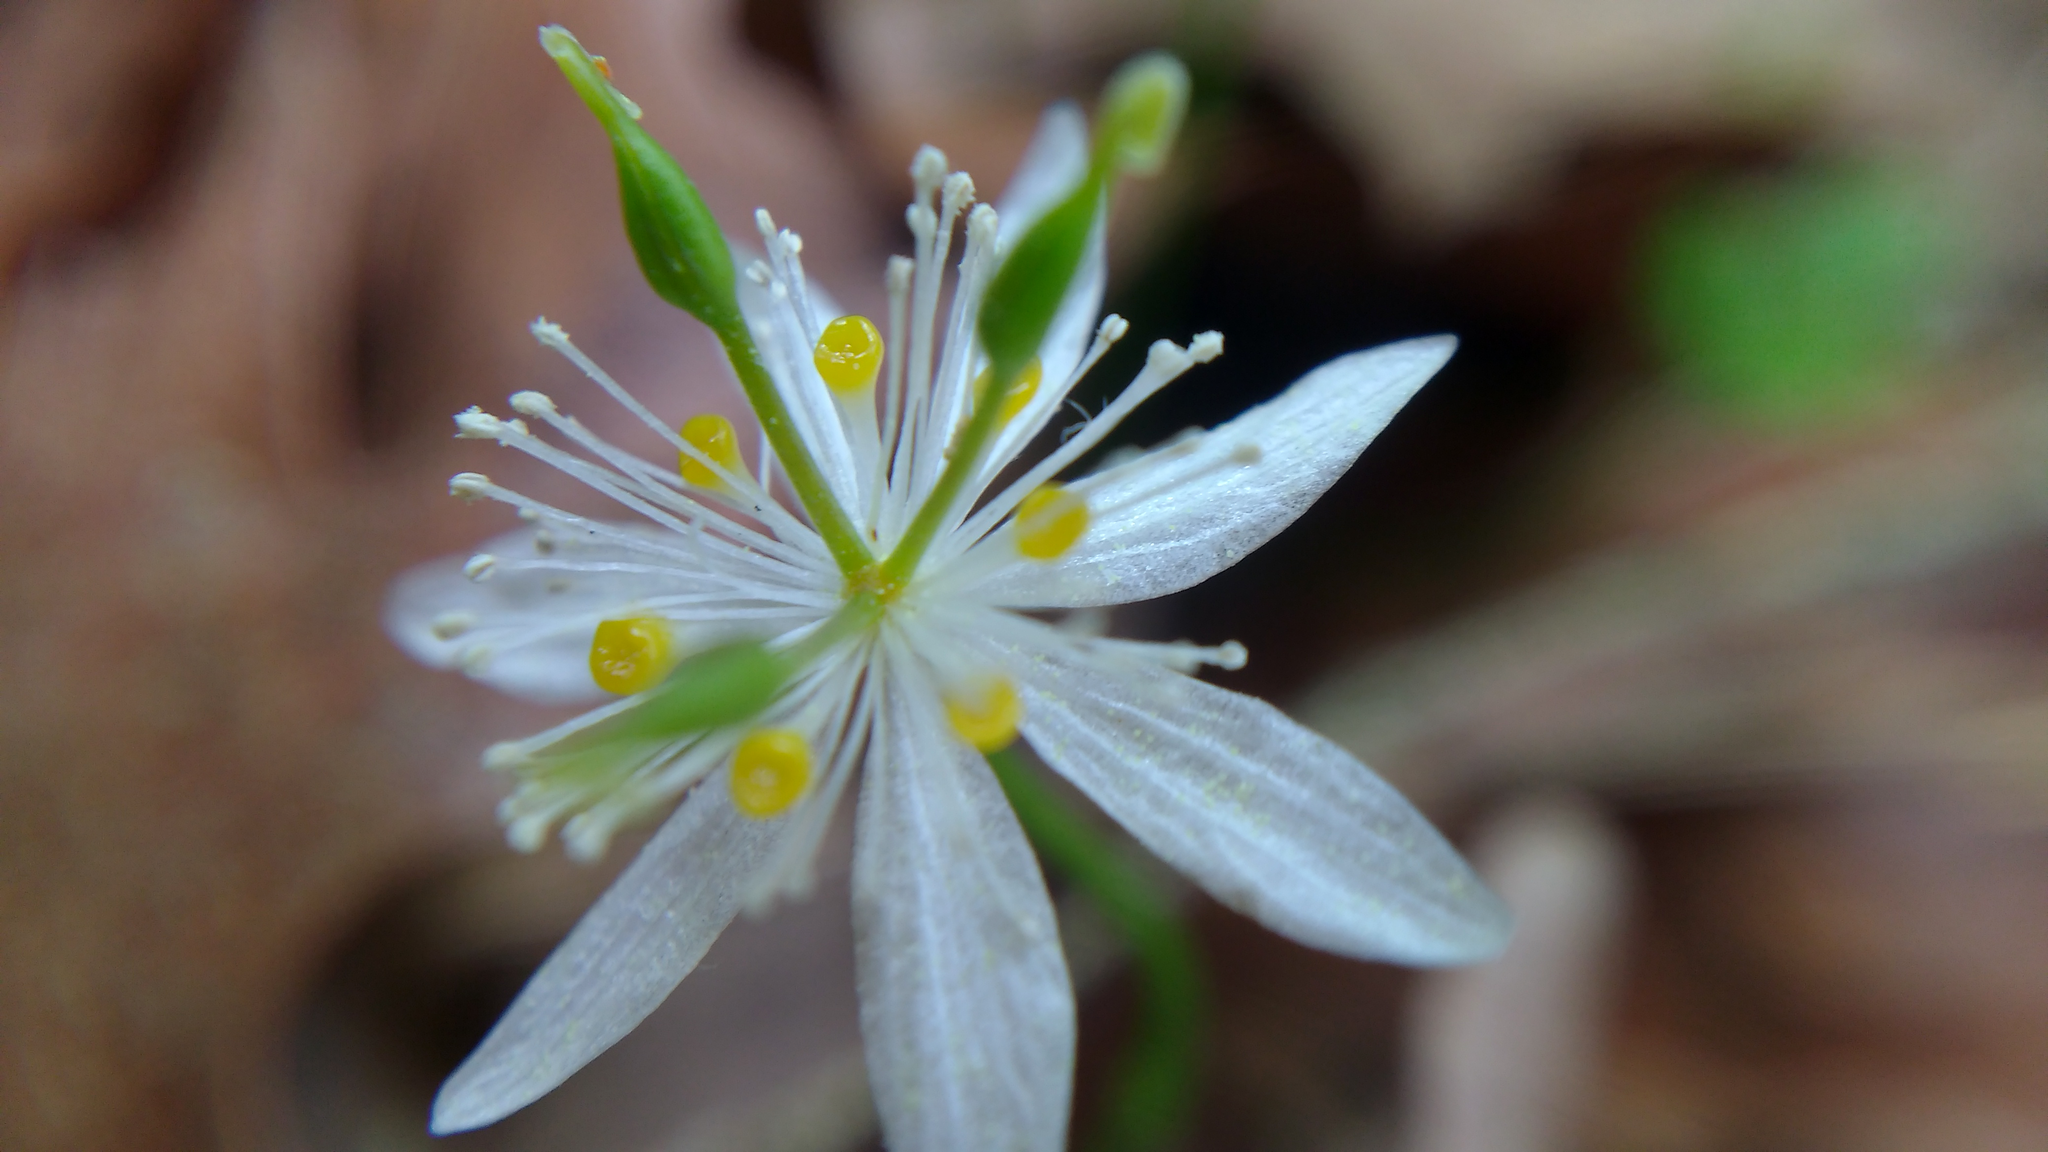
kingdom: Plantae
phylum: Tracheophyta
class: Magnoliopsida
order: Ranunculales
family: Ranunculaceae
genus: Coptis
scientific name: Coptis trifolia
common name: Canker-root
